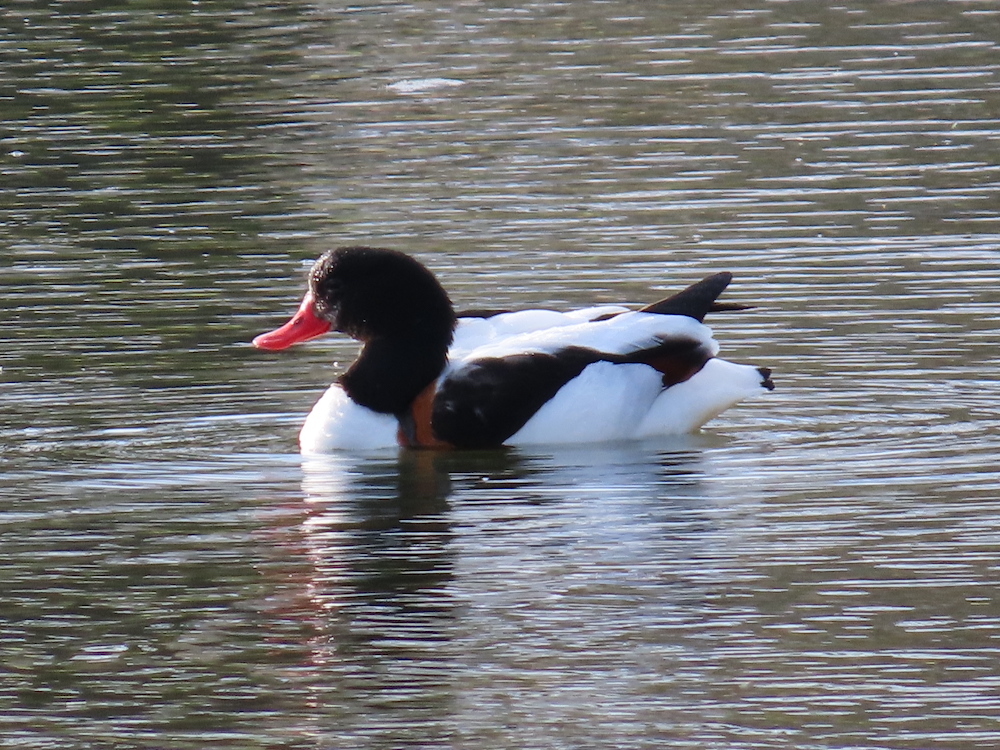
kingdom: Animalia
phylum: Chordata
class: Aves
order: Anseriformes
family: Anatidae
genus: Tadorna
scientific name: Tadorna tadorna
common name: Common shelduck
